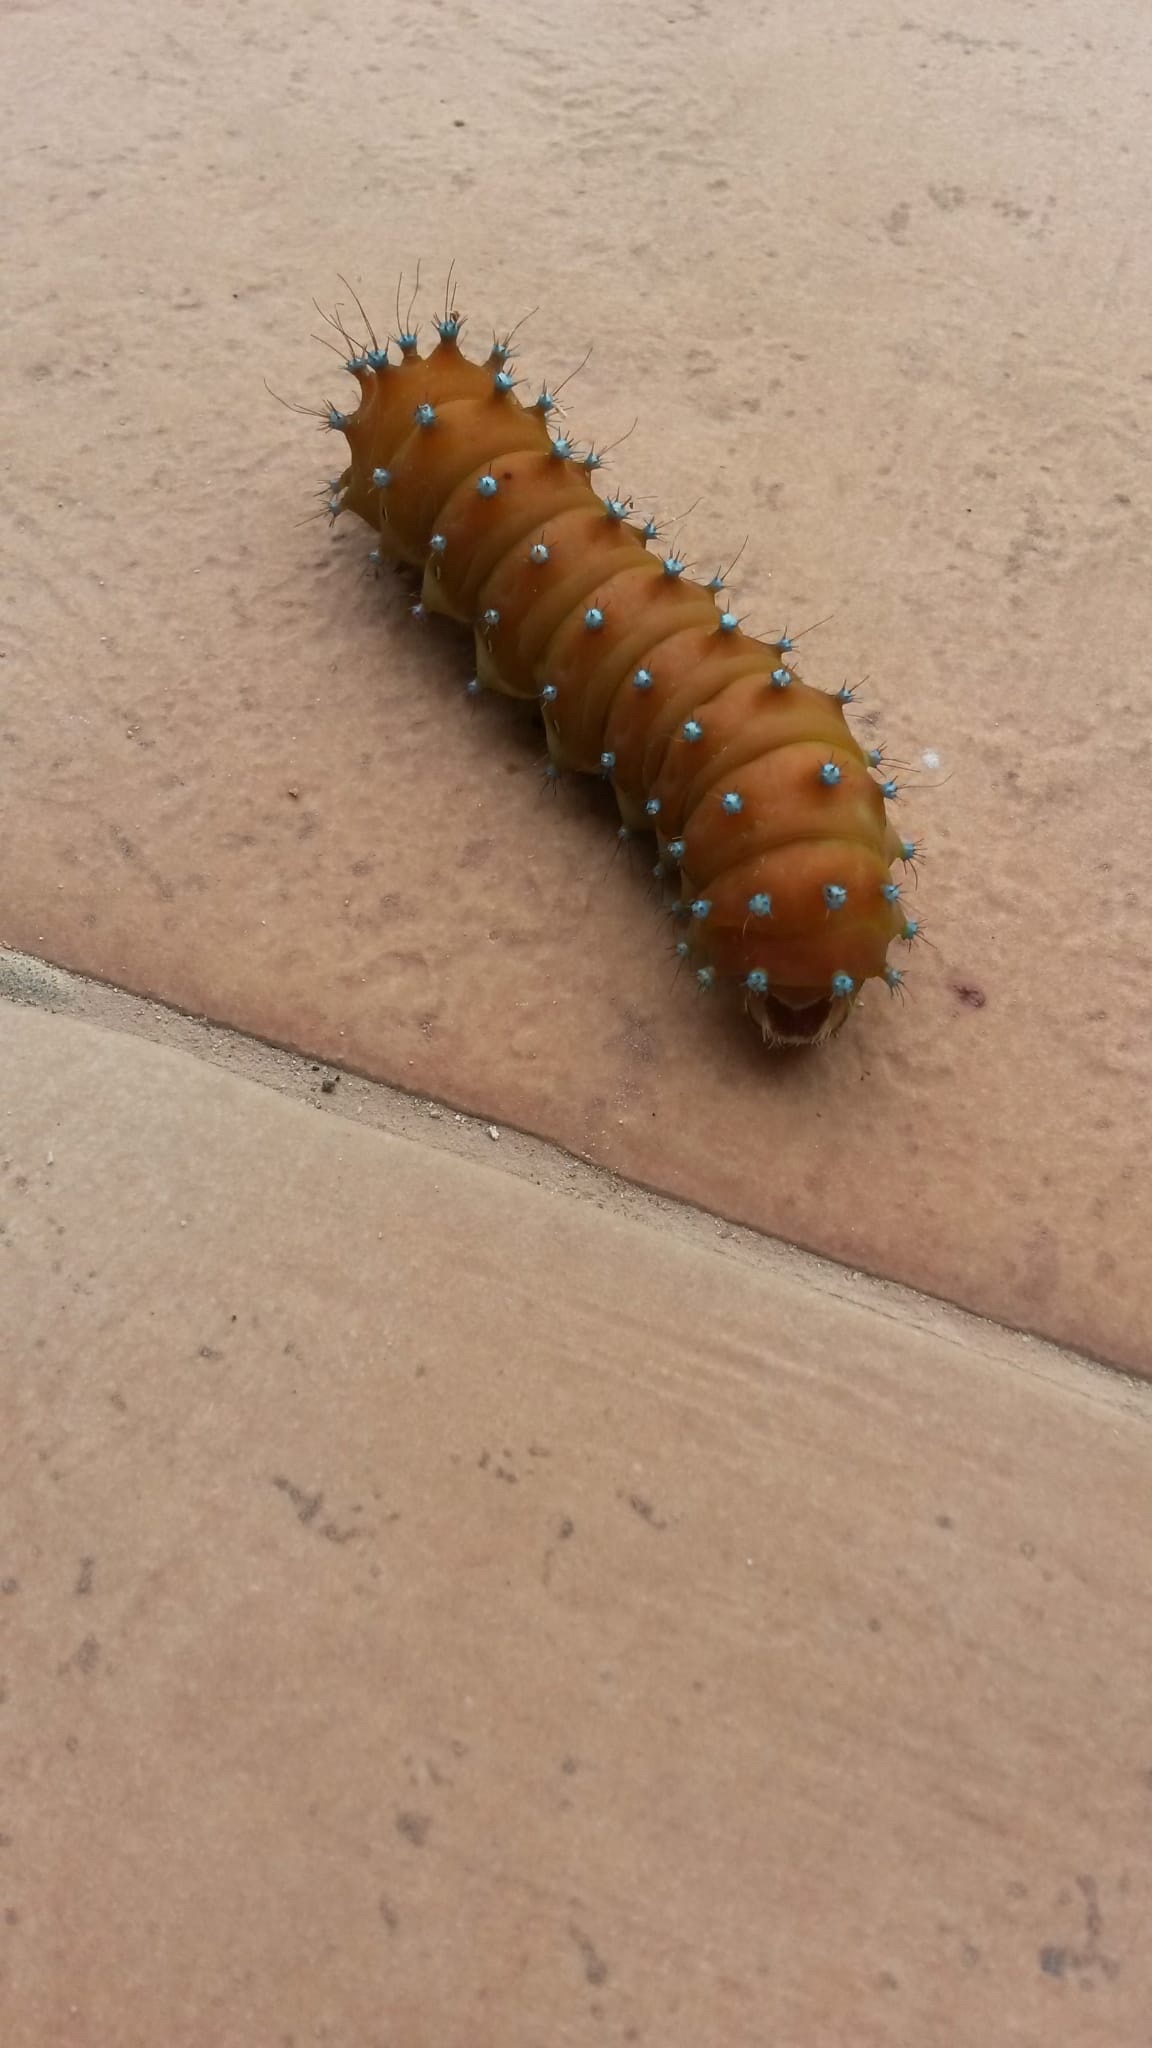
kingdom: Animalia
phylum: Arthropoda
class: Insecta
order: Lepidoptera
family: Saturniidae
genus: Saturnia
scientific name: Saturnia pyri
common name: Great peacock moth
